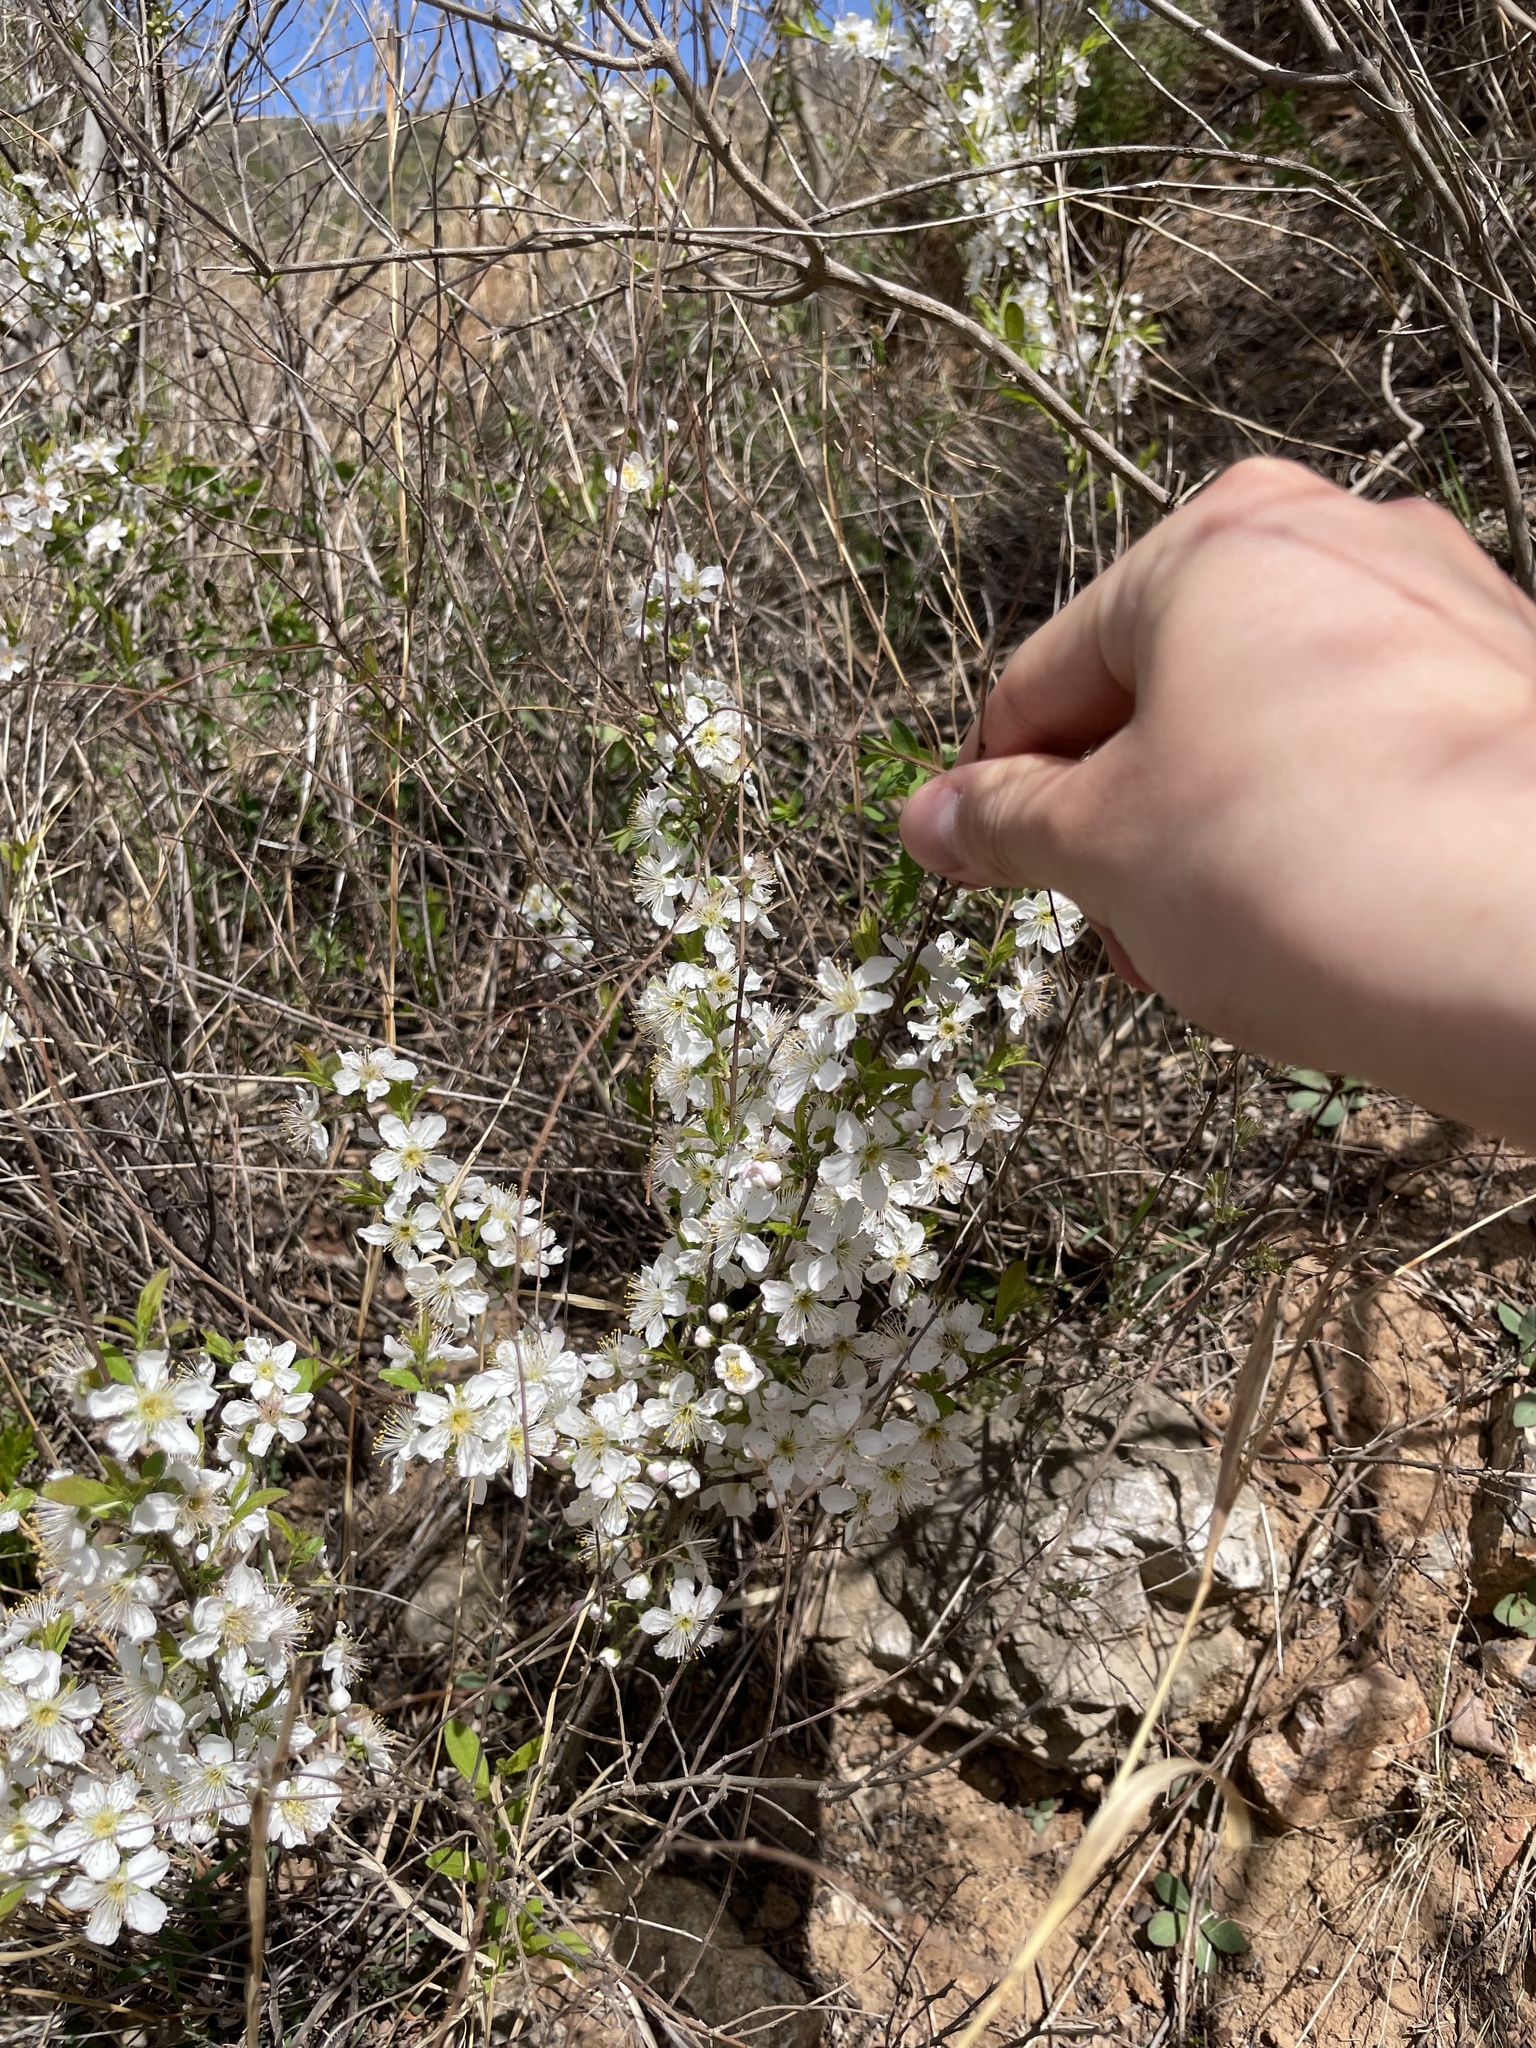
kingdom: Plantae
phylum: Tracheophyta
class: Magnoliopsida
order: Rosales
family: Rosaceae
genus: Prunus
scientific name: Prunus humilis
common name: Humble bush cherry
